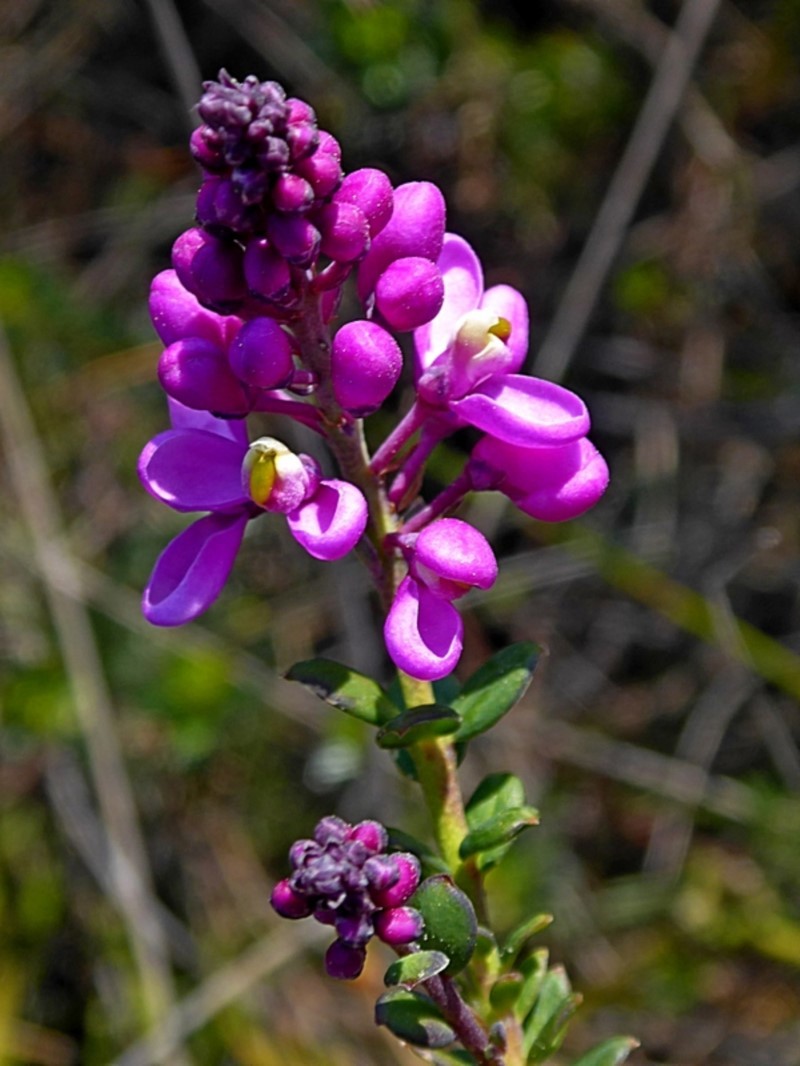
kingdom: Plantae
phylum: Tracheophyta
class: Magnoliopsida
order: Fabales
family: Polygalaceae
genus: Comesperma
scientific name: Comesperma ericinum
